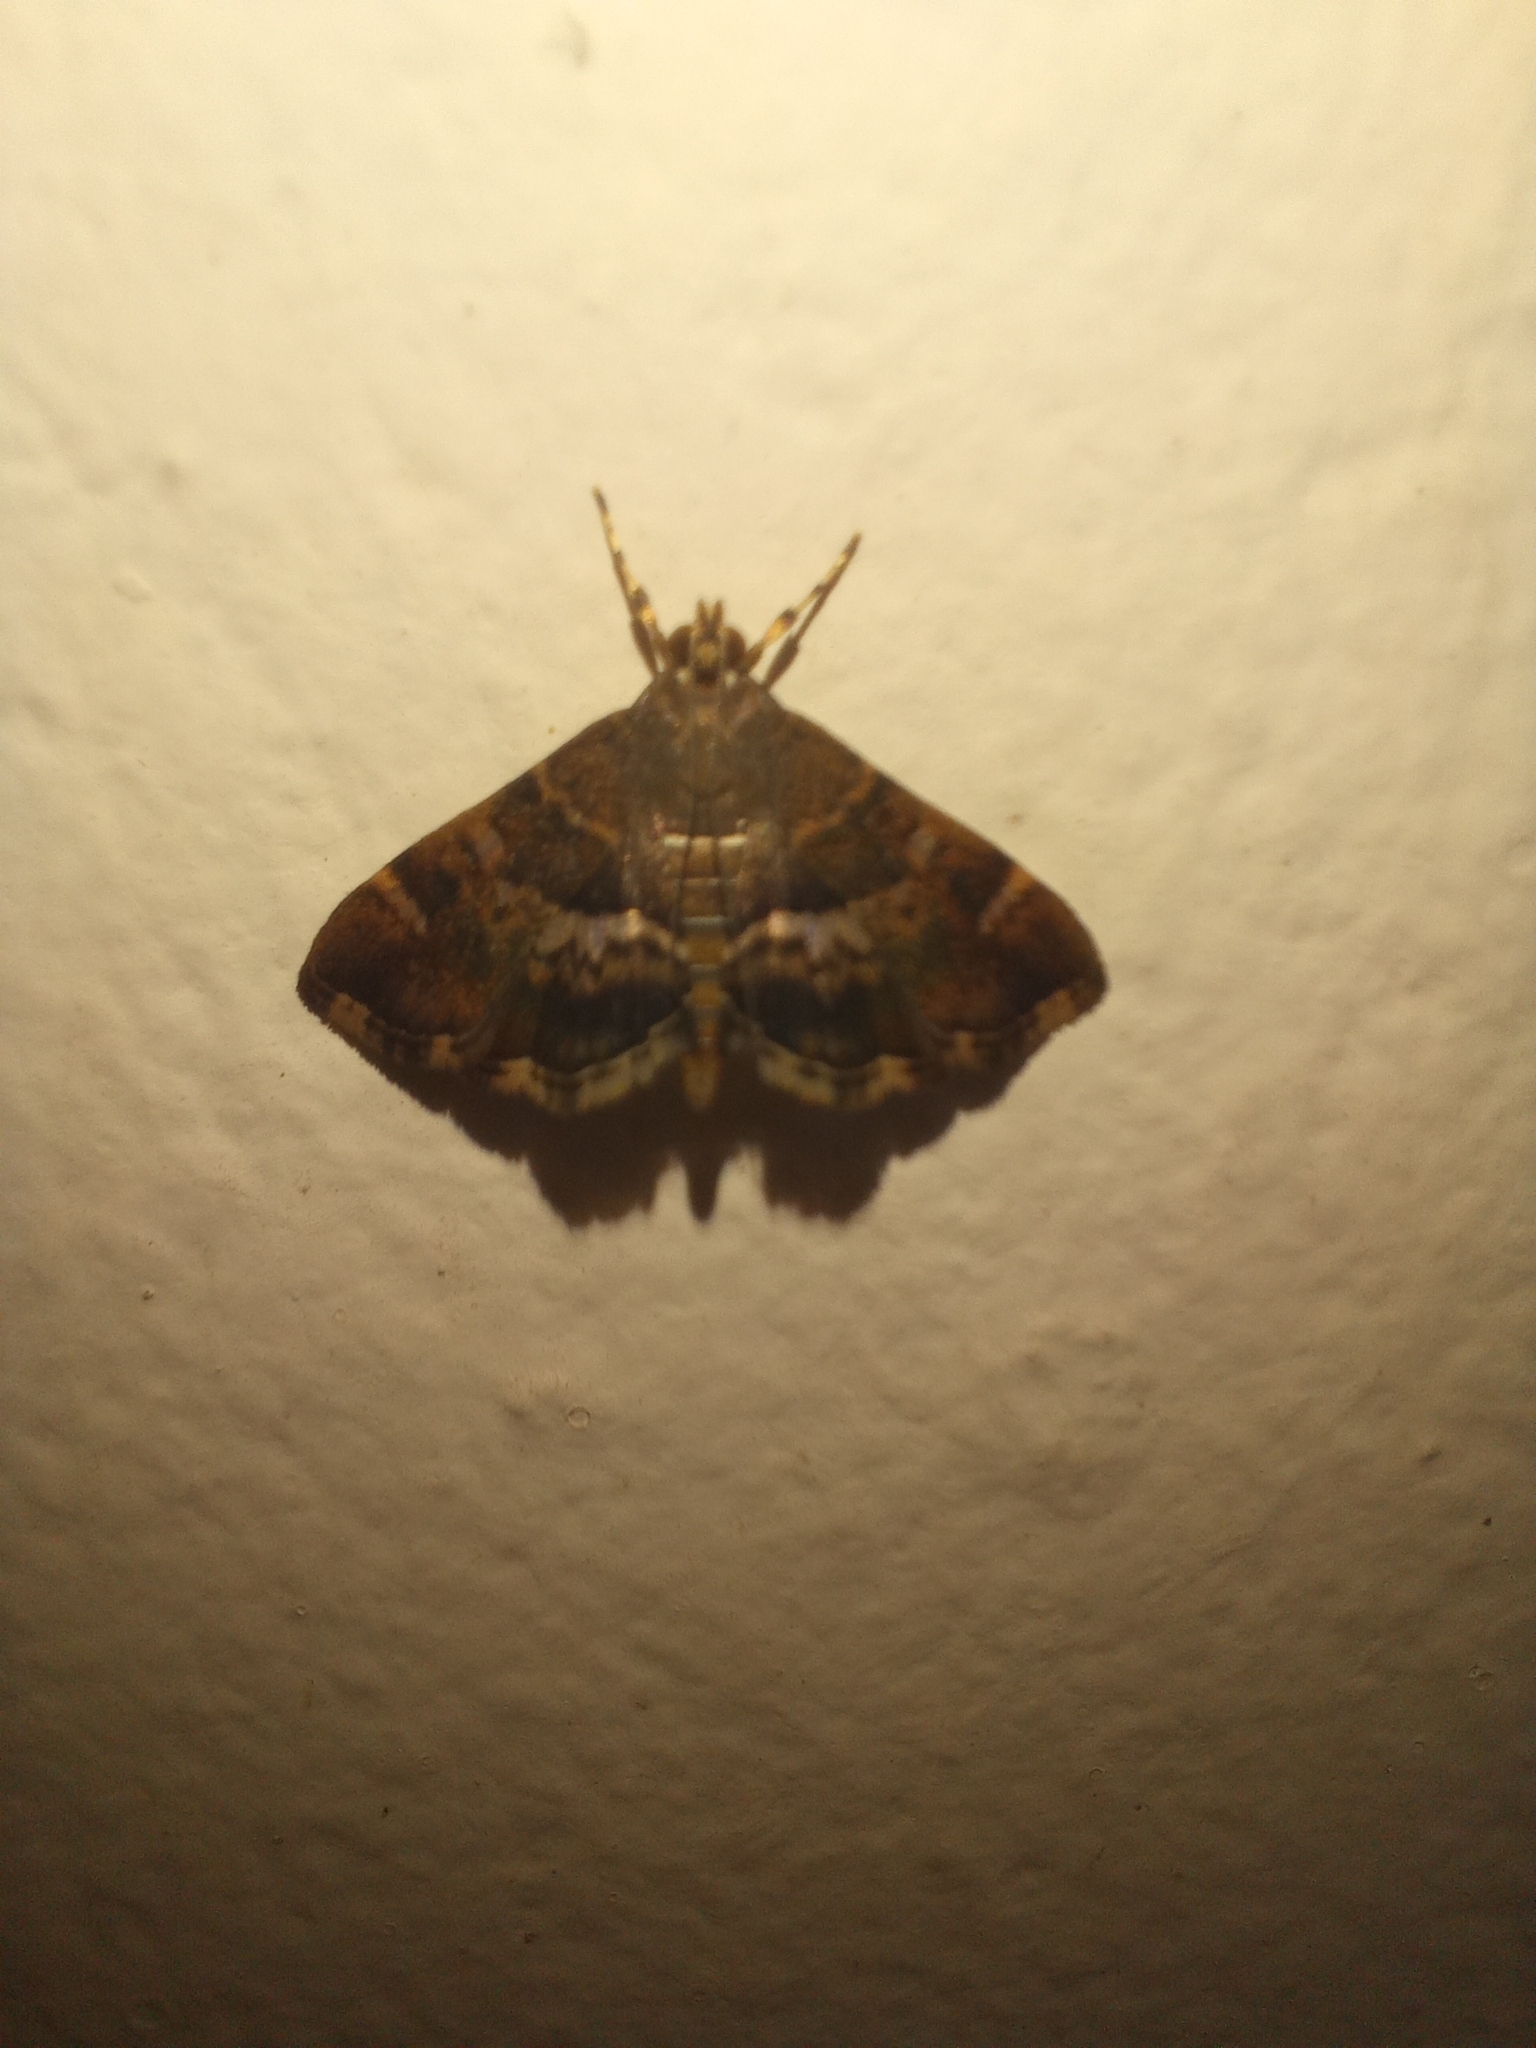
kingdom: Animalia
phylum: Arthropoda
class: Insecta
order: Lepidoptera
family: Crambidae
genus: Hymenia
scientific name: Hymenia perspectalis
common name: Spotted beet webworm
